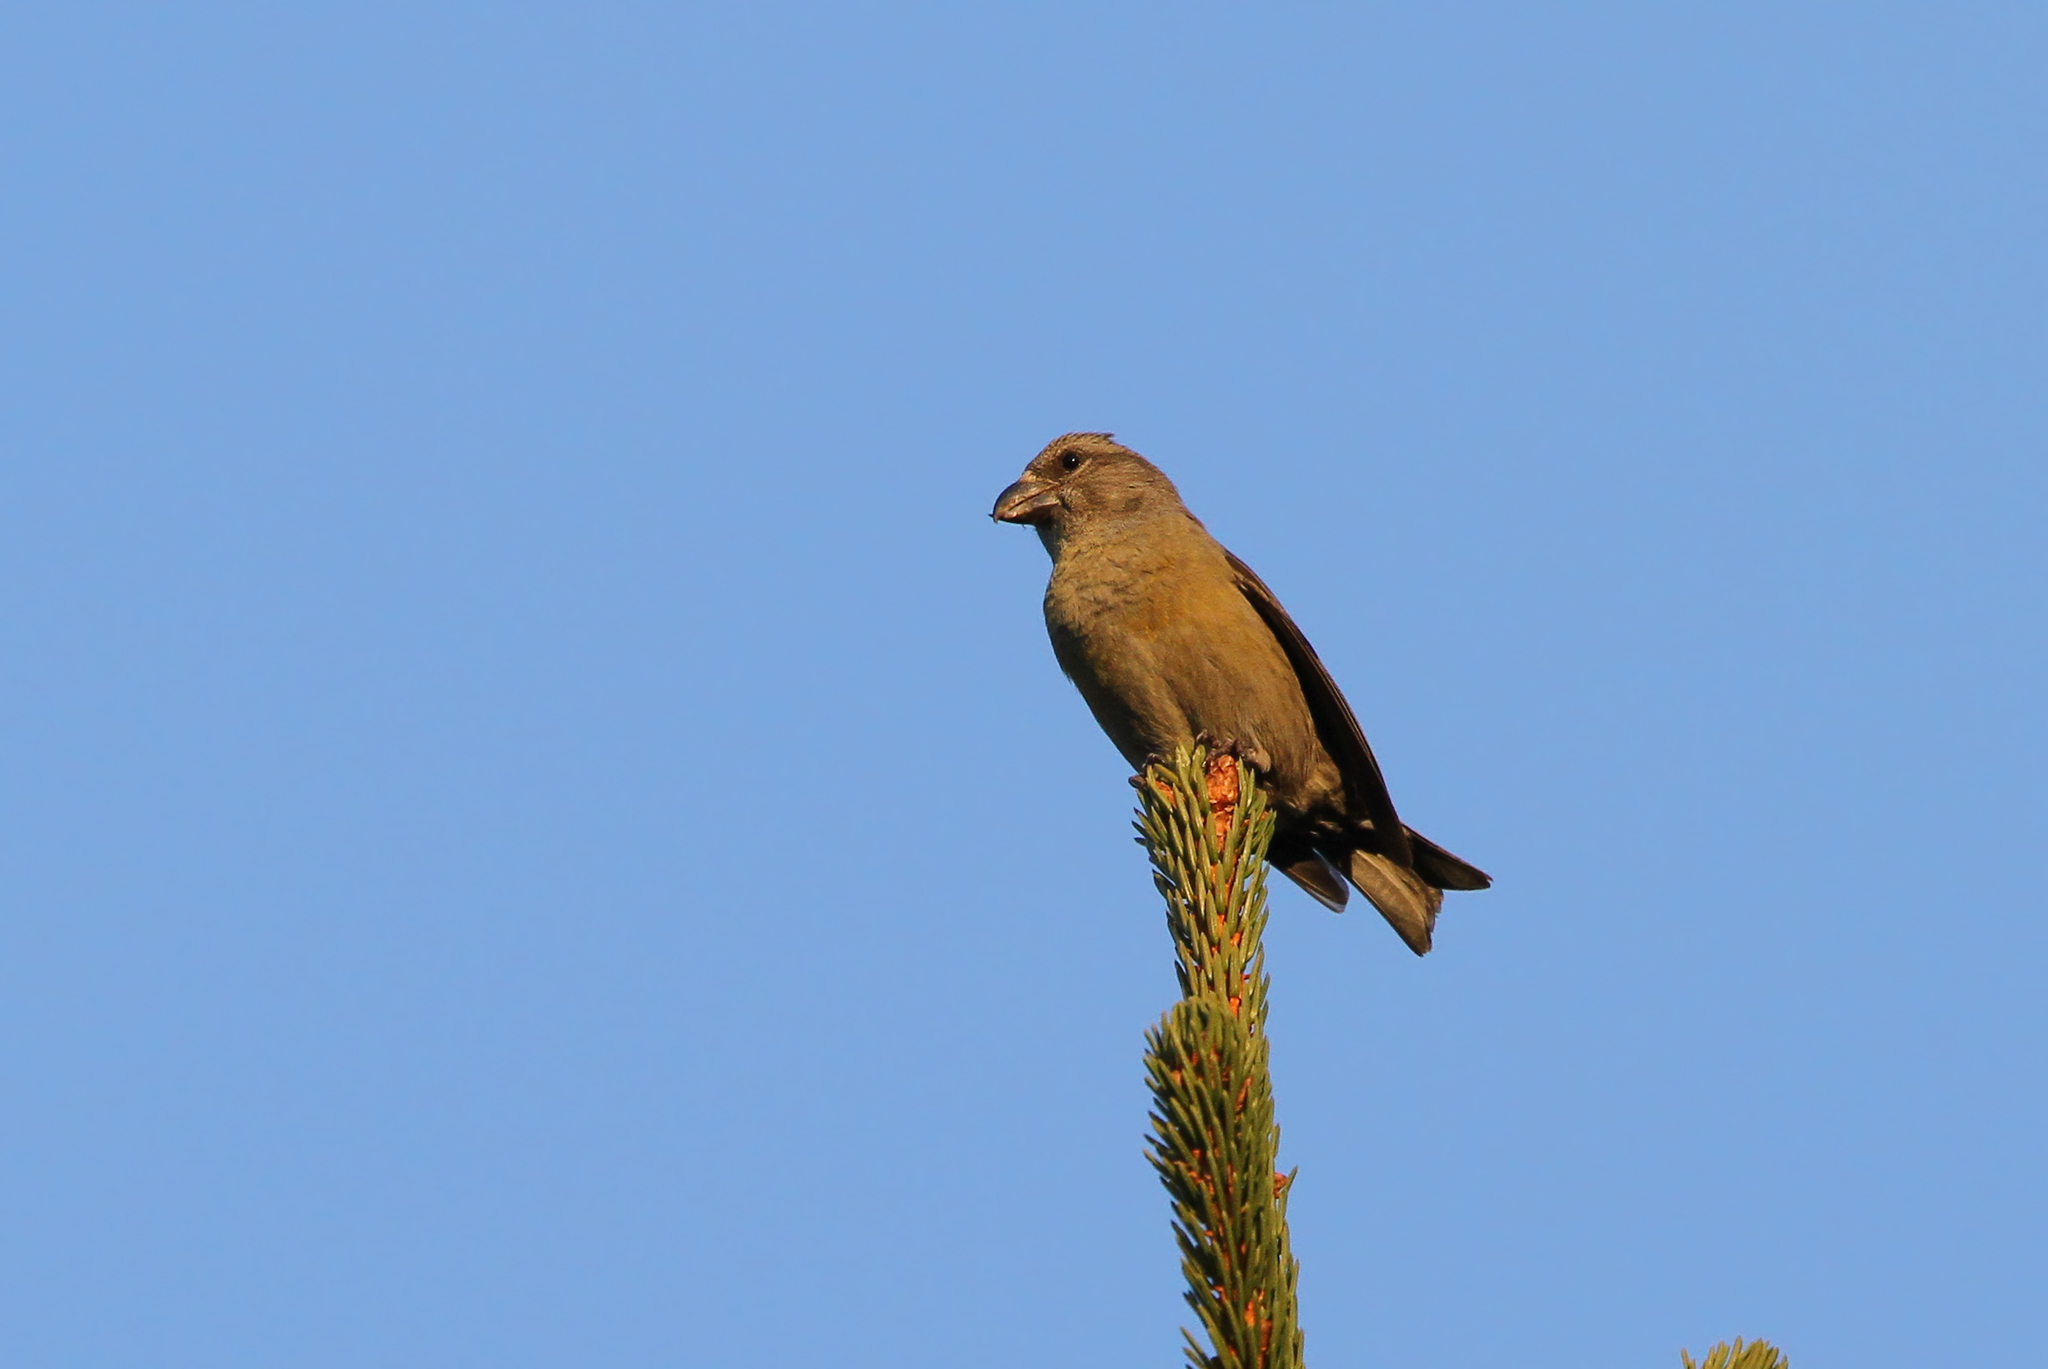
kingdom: Animalia
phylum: Chordata
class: Aves
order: Passeriformes
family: Fringillidae
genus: Loxia
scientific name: Loxia curvirostra
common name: Red crossbill
